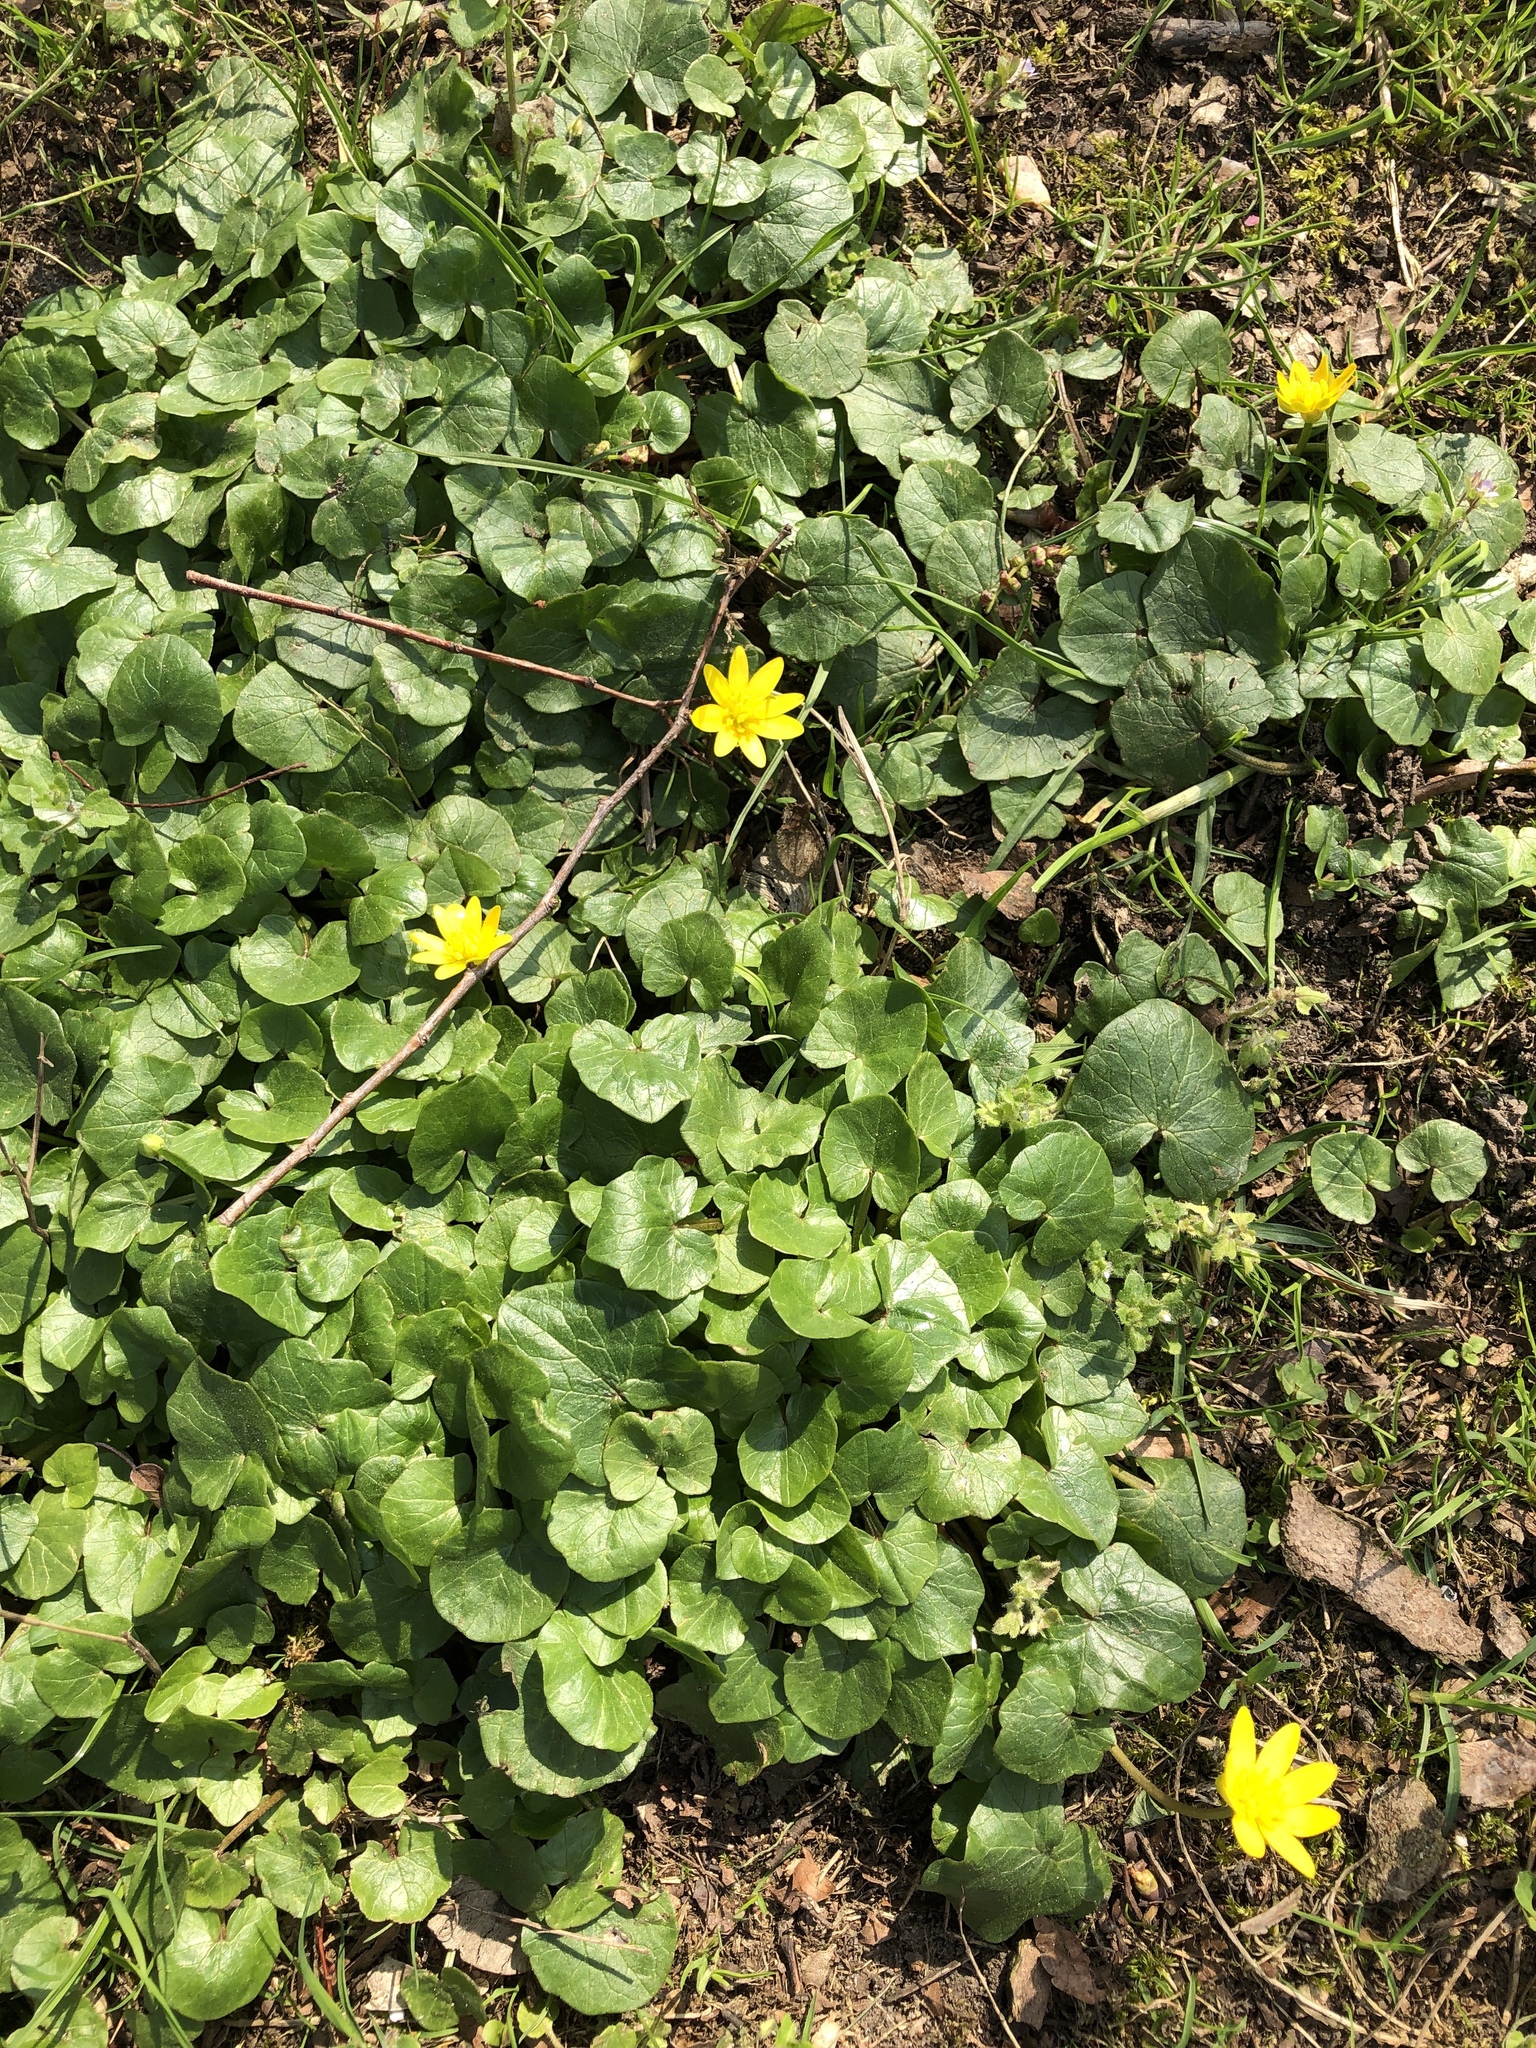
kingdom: Plantae
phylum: Tracheophyta
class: Magnoliopsida
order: Ranunculales
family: Ranunculaceae
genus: Ficaria
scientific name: Ficaria verna
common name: Lesser celandine
